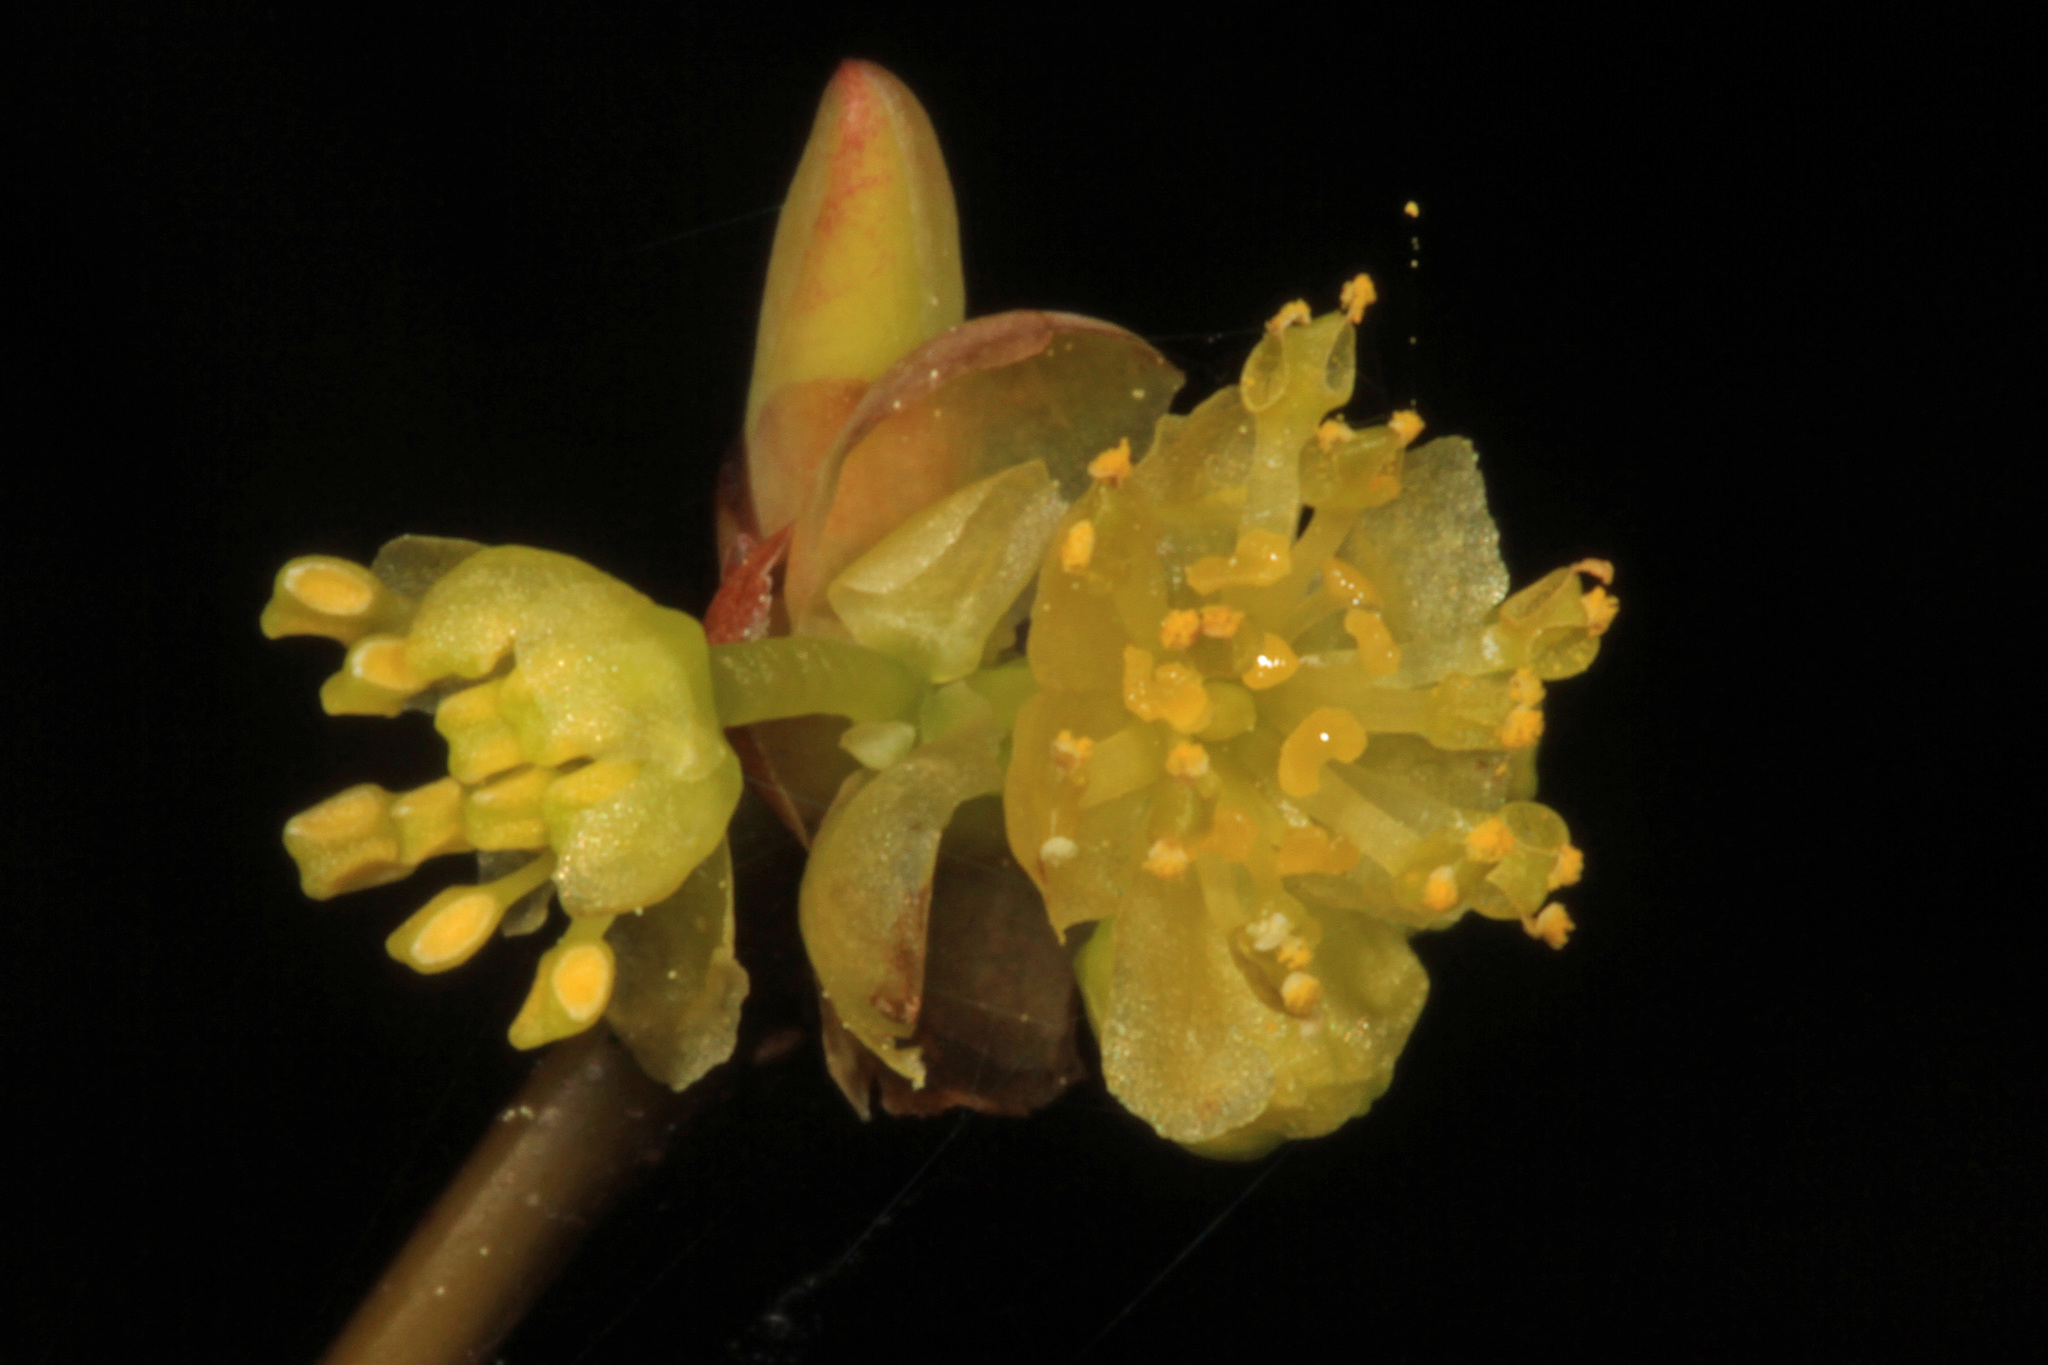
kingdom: Plantae
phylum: Tracheophyta
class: Magnoliopsida
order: Laurales
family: Lauraceae
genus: Lindera
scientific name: Lindera benzoin
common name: Spicebush
